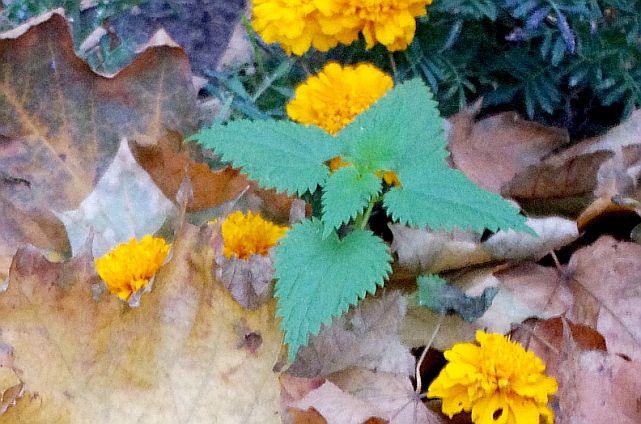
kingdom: Plantae
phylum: Tracheophyta
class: Magnoliopsida
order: Rosales
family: Urticaceae
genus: Urtica
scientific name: Urtica dioica
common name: Common nettle
